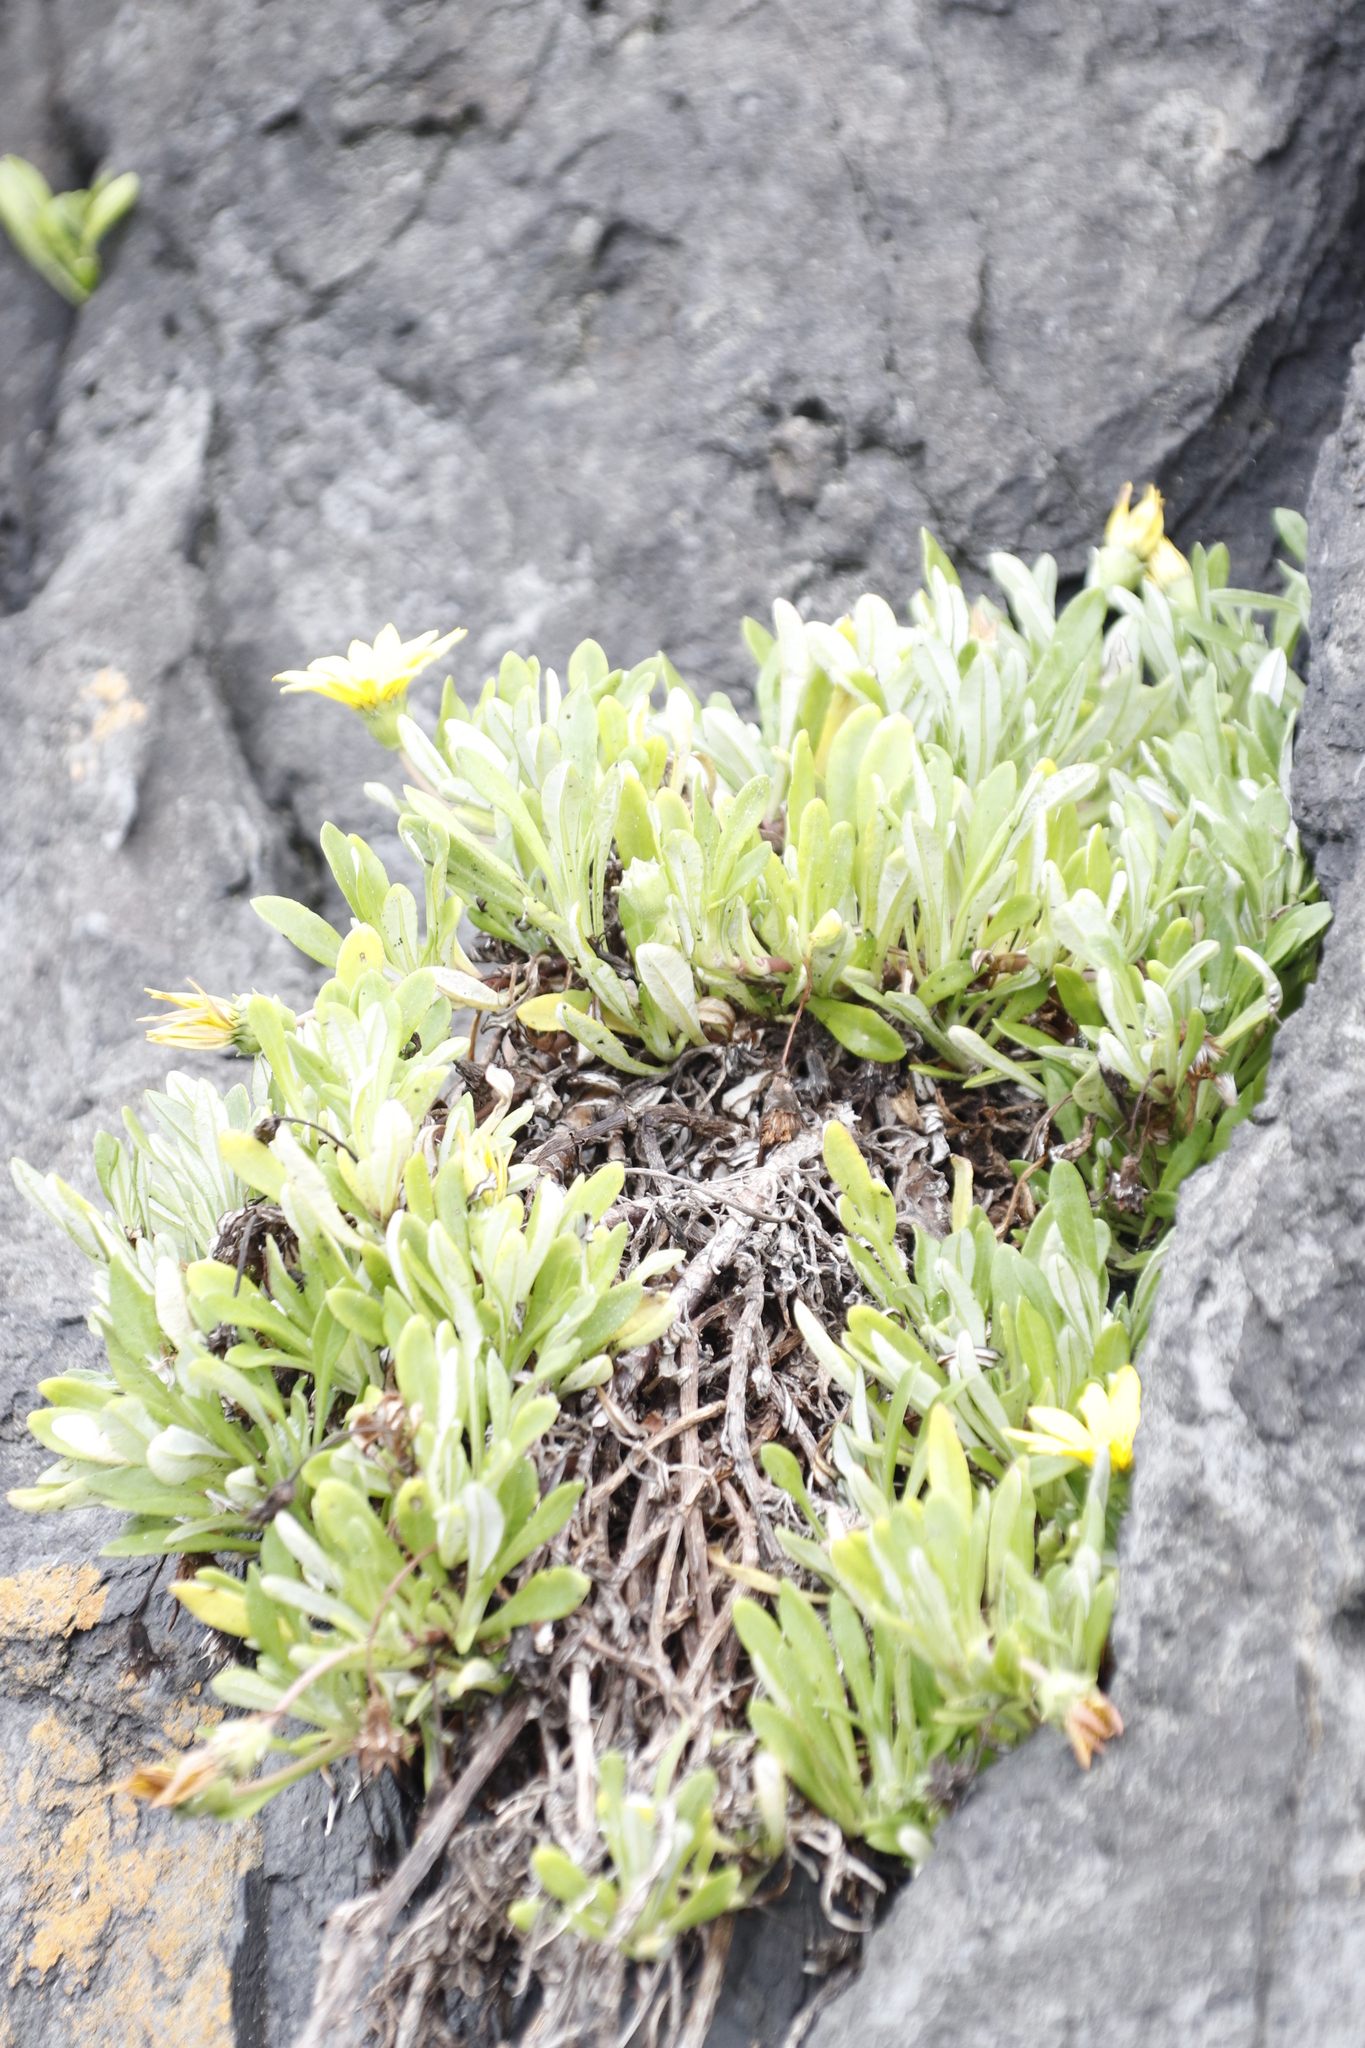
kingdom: Plantae
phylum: Tracheophyta
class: Magnoliopsida
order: Asterales
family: Asteraceae
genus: Gazania
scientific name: Gazania rigens
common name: Treasureflower
